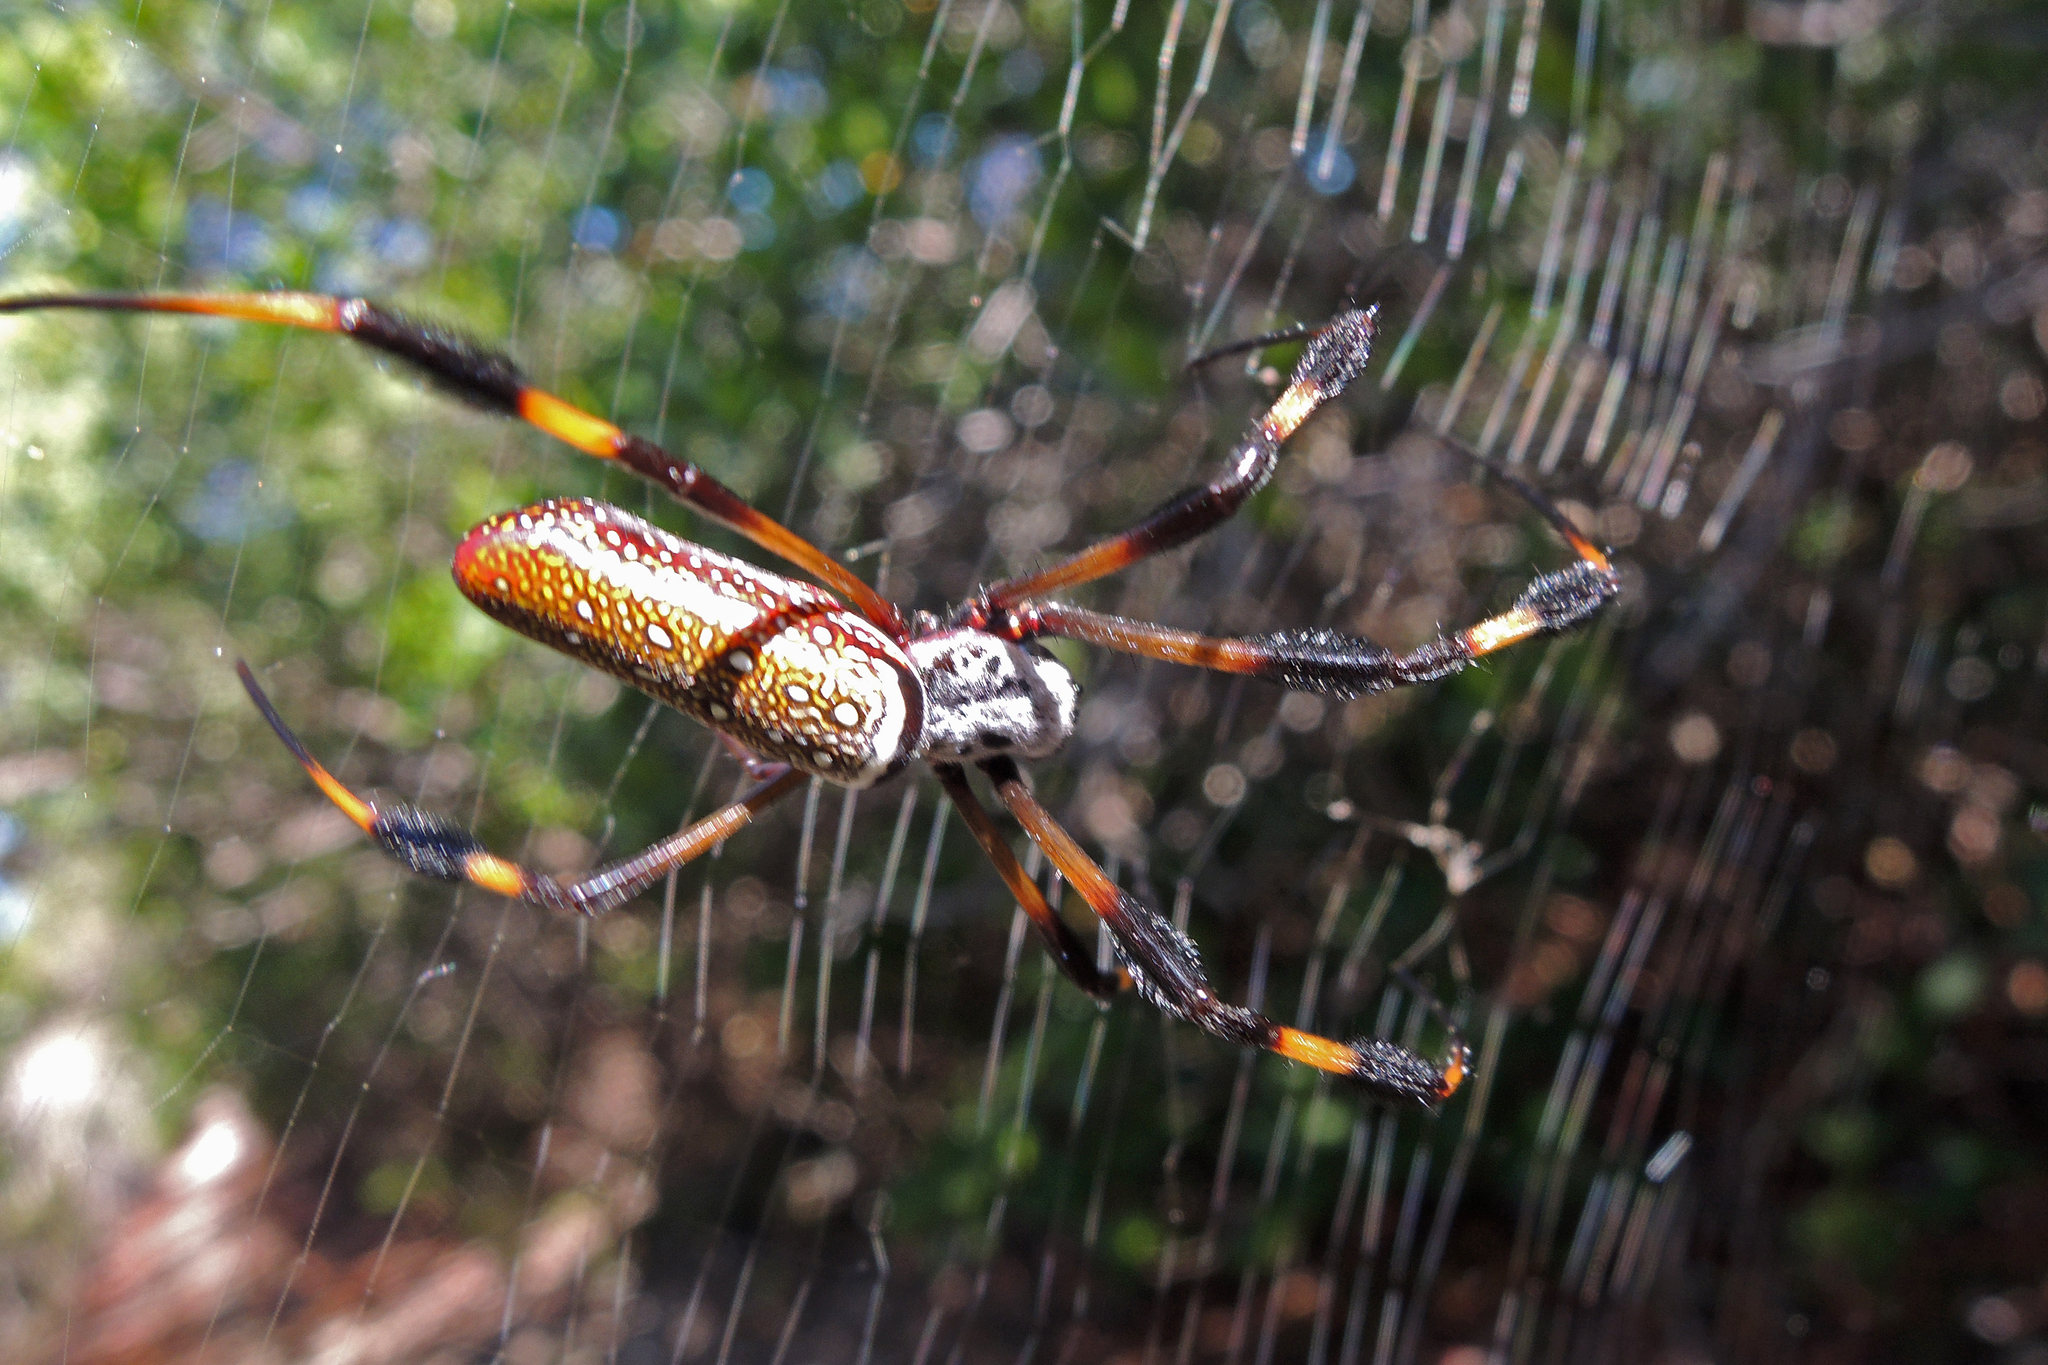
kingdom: Animalia
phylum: Arthropoda
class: Arachnida
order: Araneae
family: Araneidae
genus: Trichonephila
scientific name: Trichonephila clavipes
